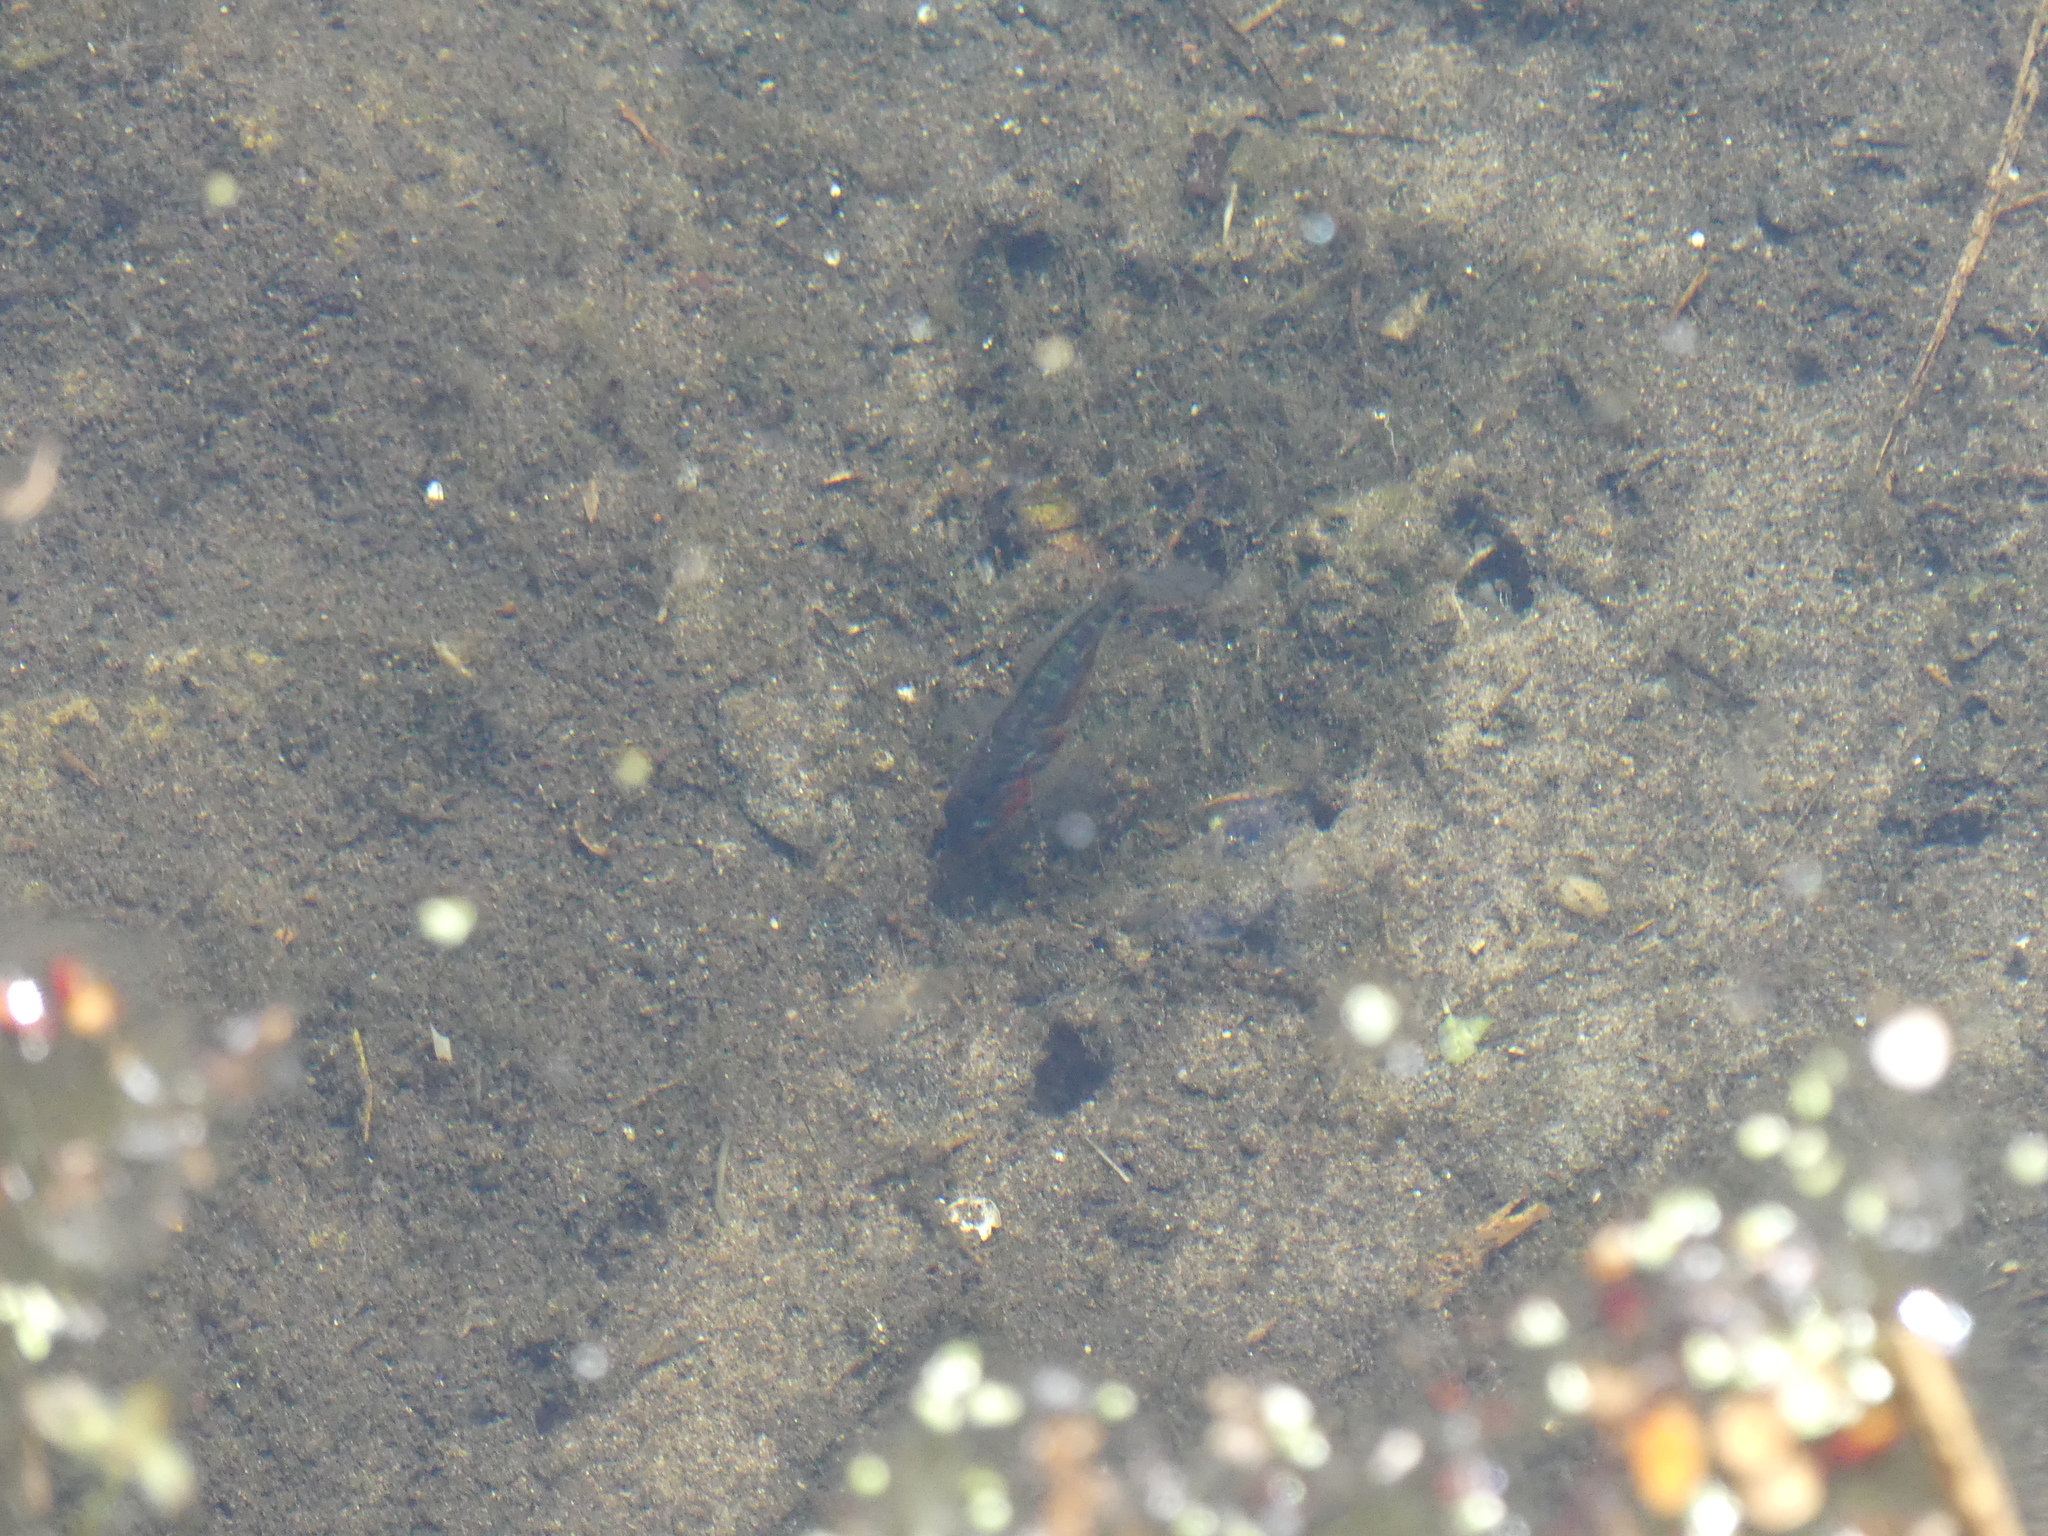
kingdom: Animalia
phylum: Chordata
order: Gasterosteiformes
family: Gasterosteidae
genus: Gasterosteus
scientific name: Gasterosteus aculeatus
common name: Three-spined stickleback
